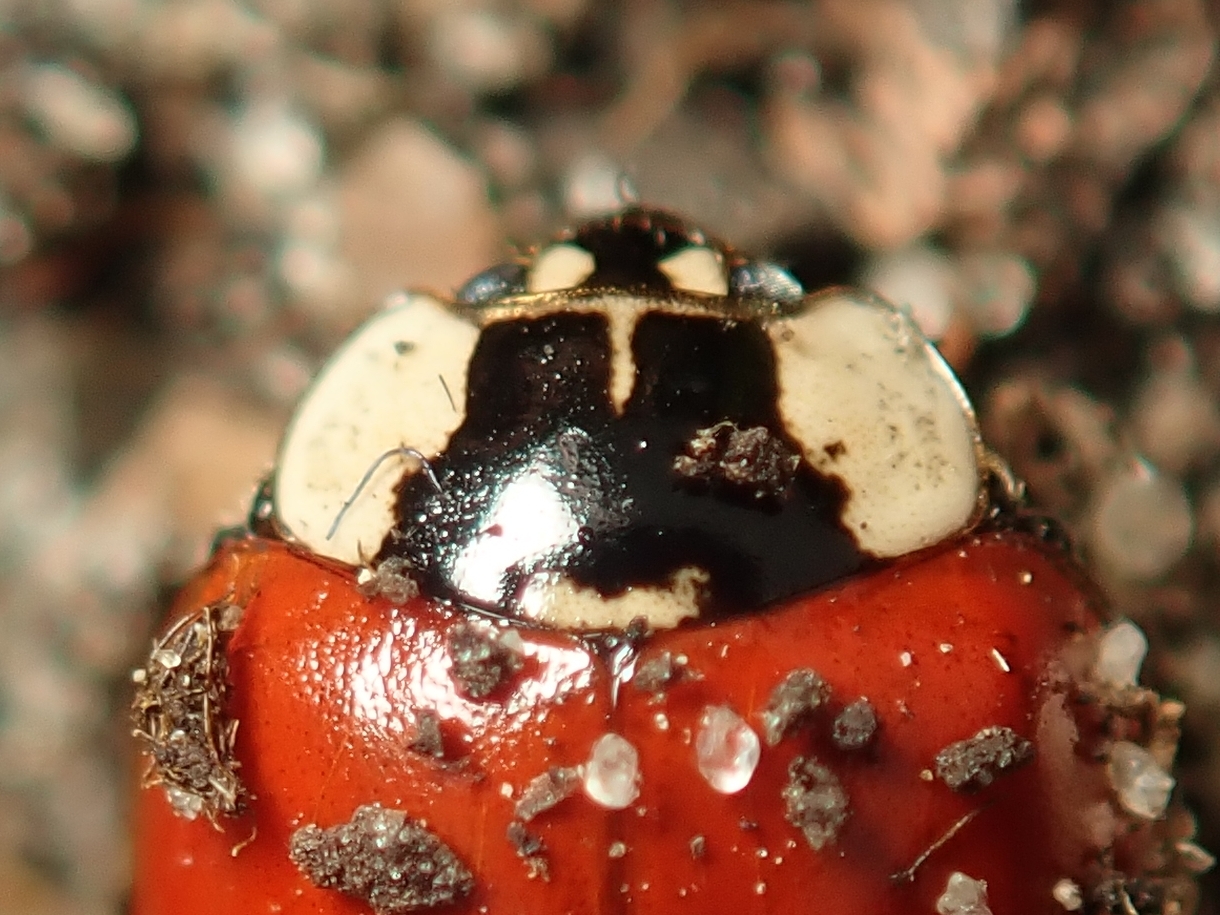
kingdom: Animalia
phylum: Arthropoda
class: Insecta
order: Coleoptera
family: Coccinellidae
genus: Adalia
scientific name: Adalia bipunctata
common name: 2-spot ladybird
